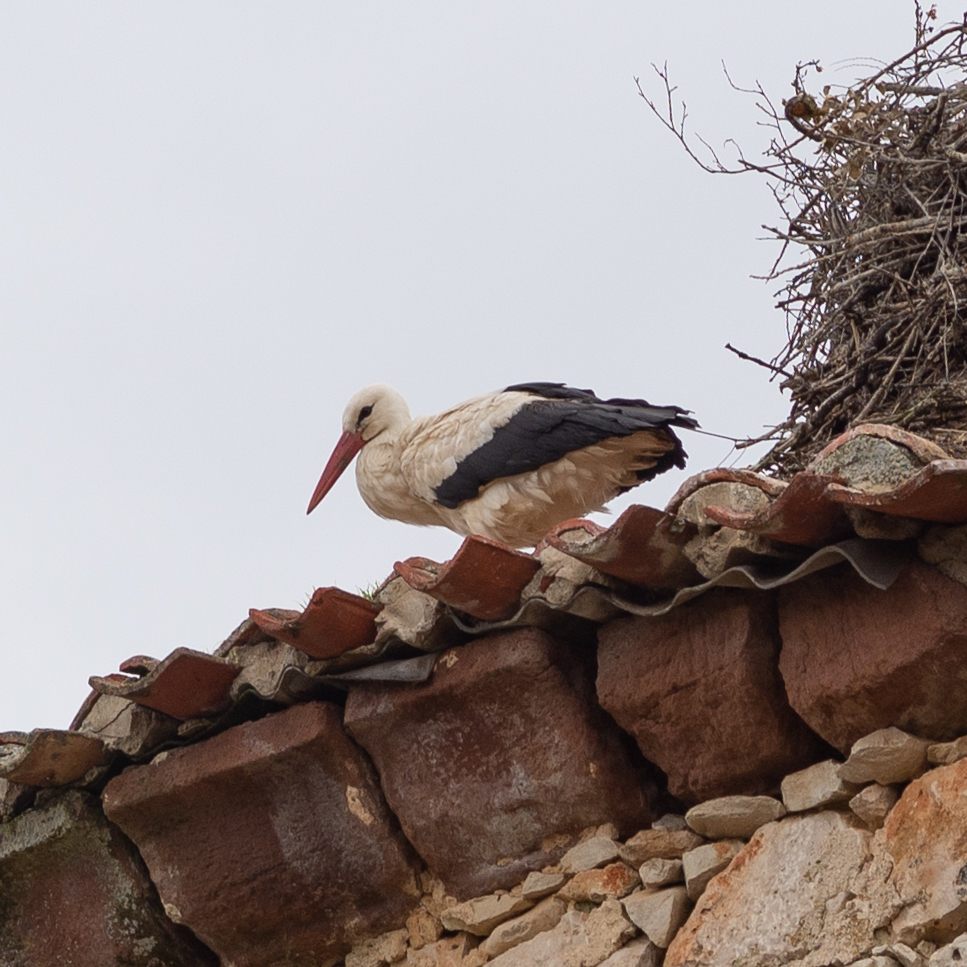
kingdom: Animalia
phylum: Chordata
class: Aves
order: Ciconiiformes
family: Ciconiidae
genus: Ciconia
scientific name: Ciconia ciconia
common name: White stork
